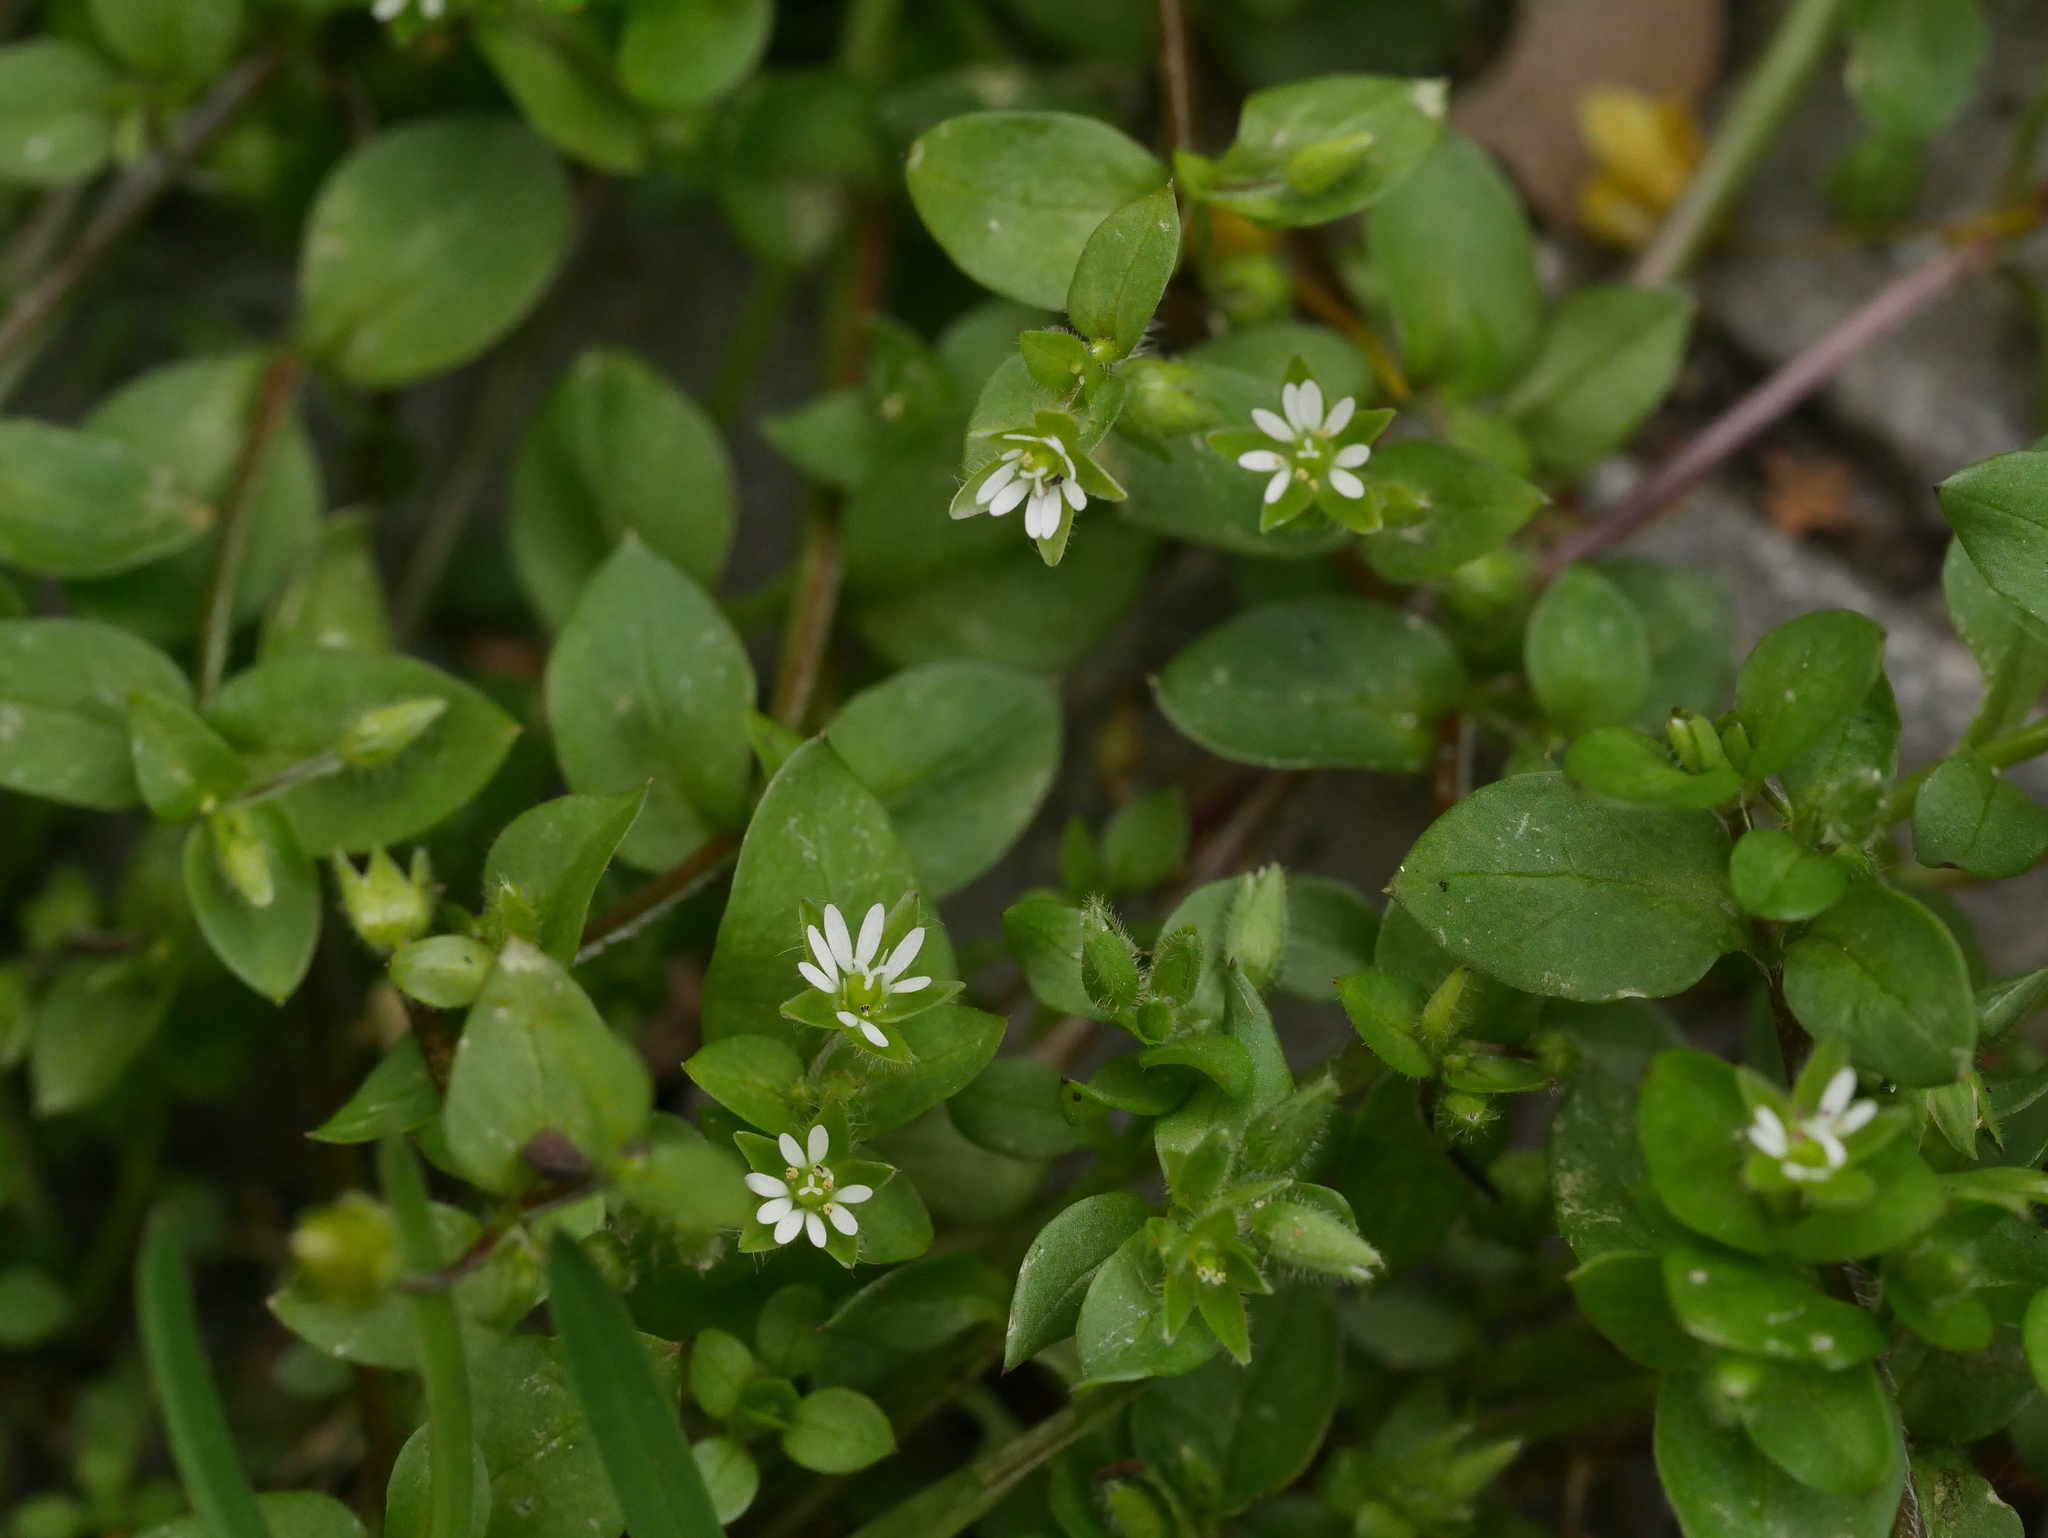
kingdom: Plantae
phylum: Tracheophyta
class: Magnoliopsida
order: Caryophyllales
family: Caryophyllaceae
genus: Stellaria
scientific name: Stellaria media
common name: Common chickweed
